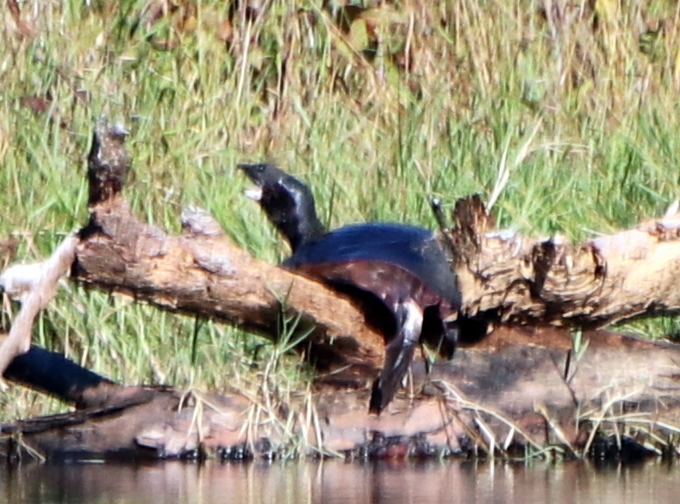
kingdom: Animalia
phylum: Chordata
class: Testudines
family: Trionychidae
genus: Apalone
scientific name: Apalone ferox
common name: Florida softshell turtle
